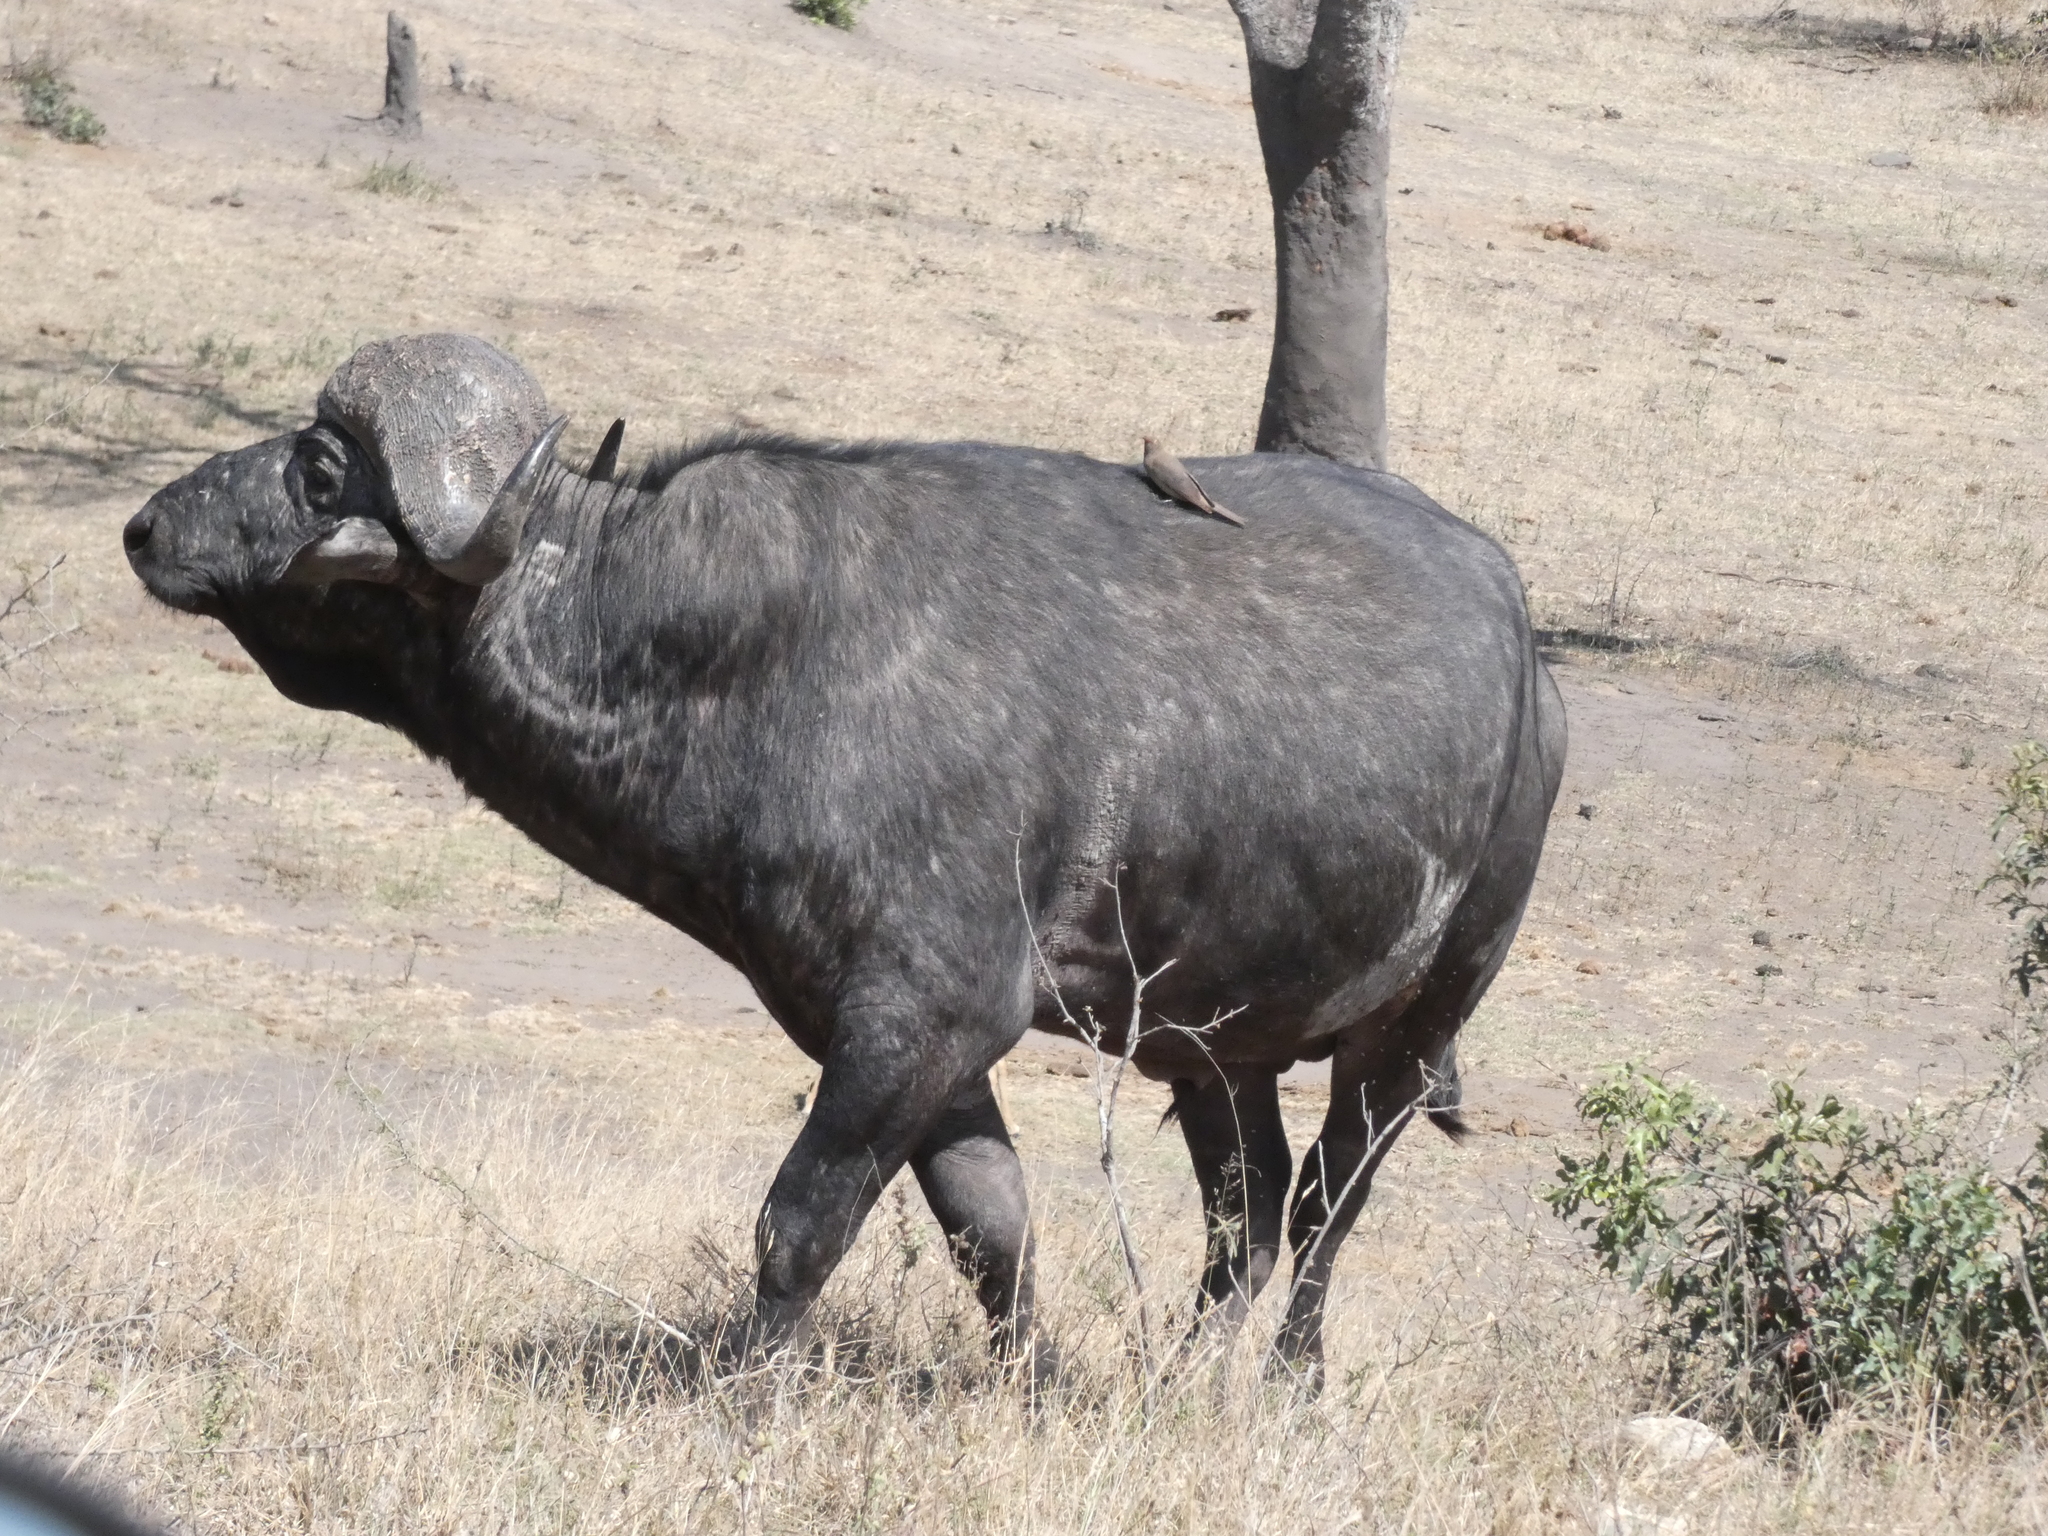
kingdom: Animalia
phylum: Chordata
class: Mammalia
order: Artiodactyla
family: Bovidae
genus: Syncerus
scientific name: Syncerus caffer
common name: African buffalo
